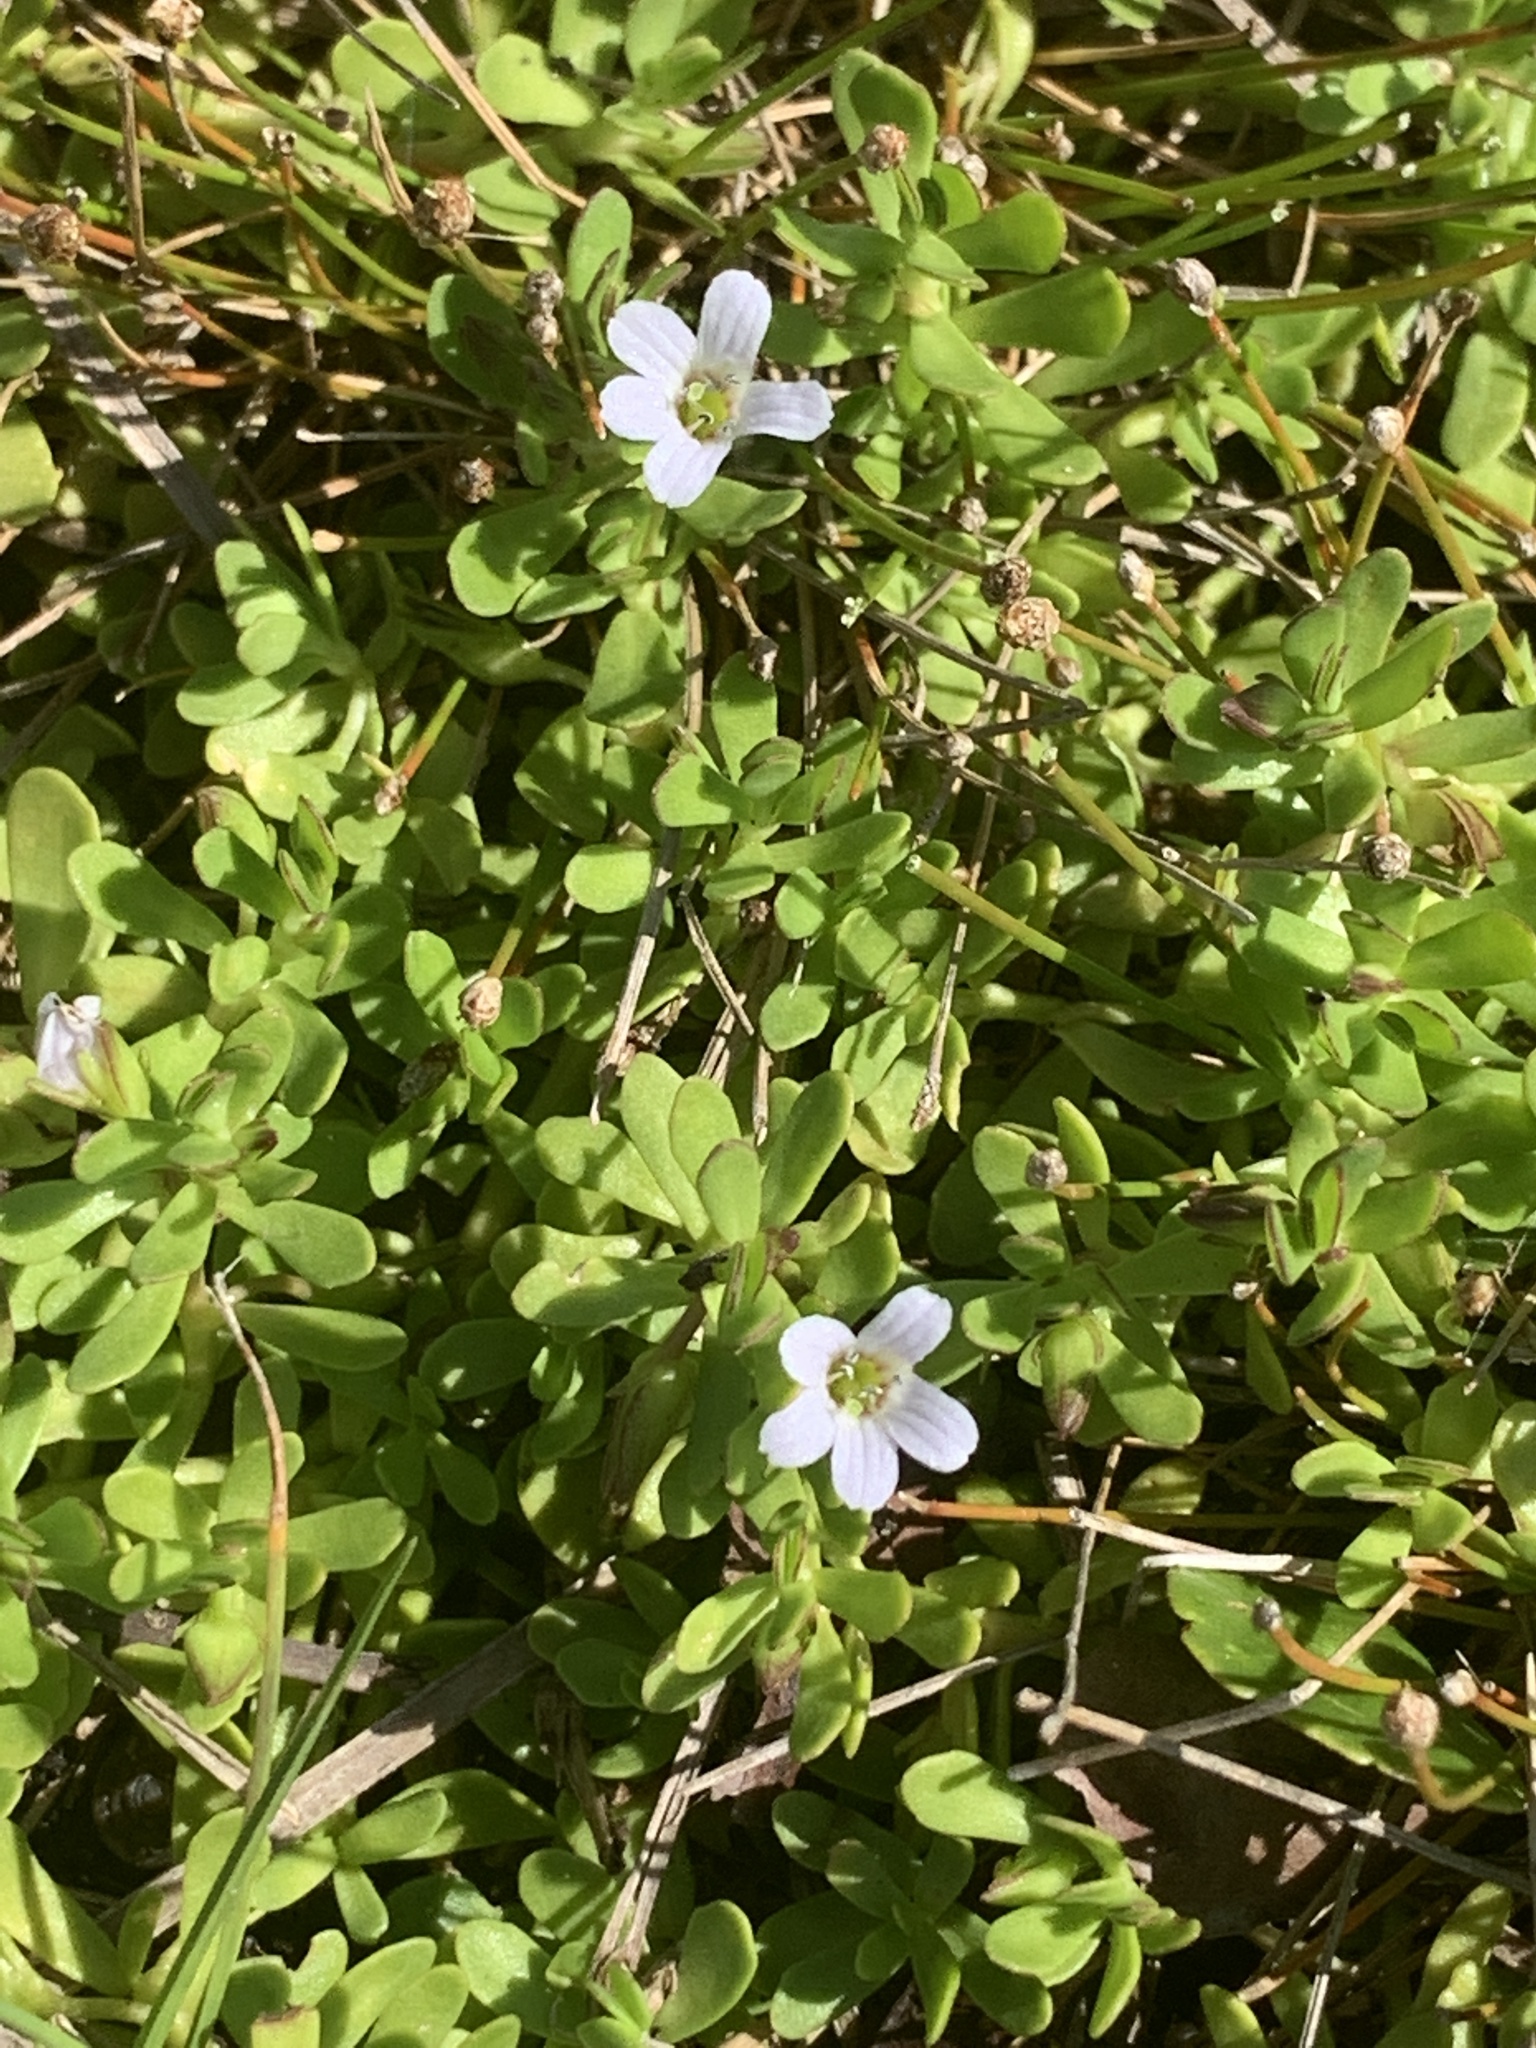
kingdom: Plantae
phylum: Tracheophyta
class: Magnoliopsida
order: Lamiales
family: Plantaginaceae
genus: Bacopa
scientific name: Bacopa monnieri
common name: Indian-pennywort
